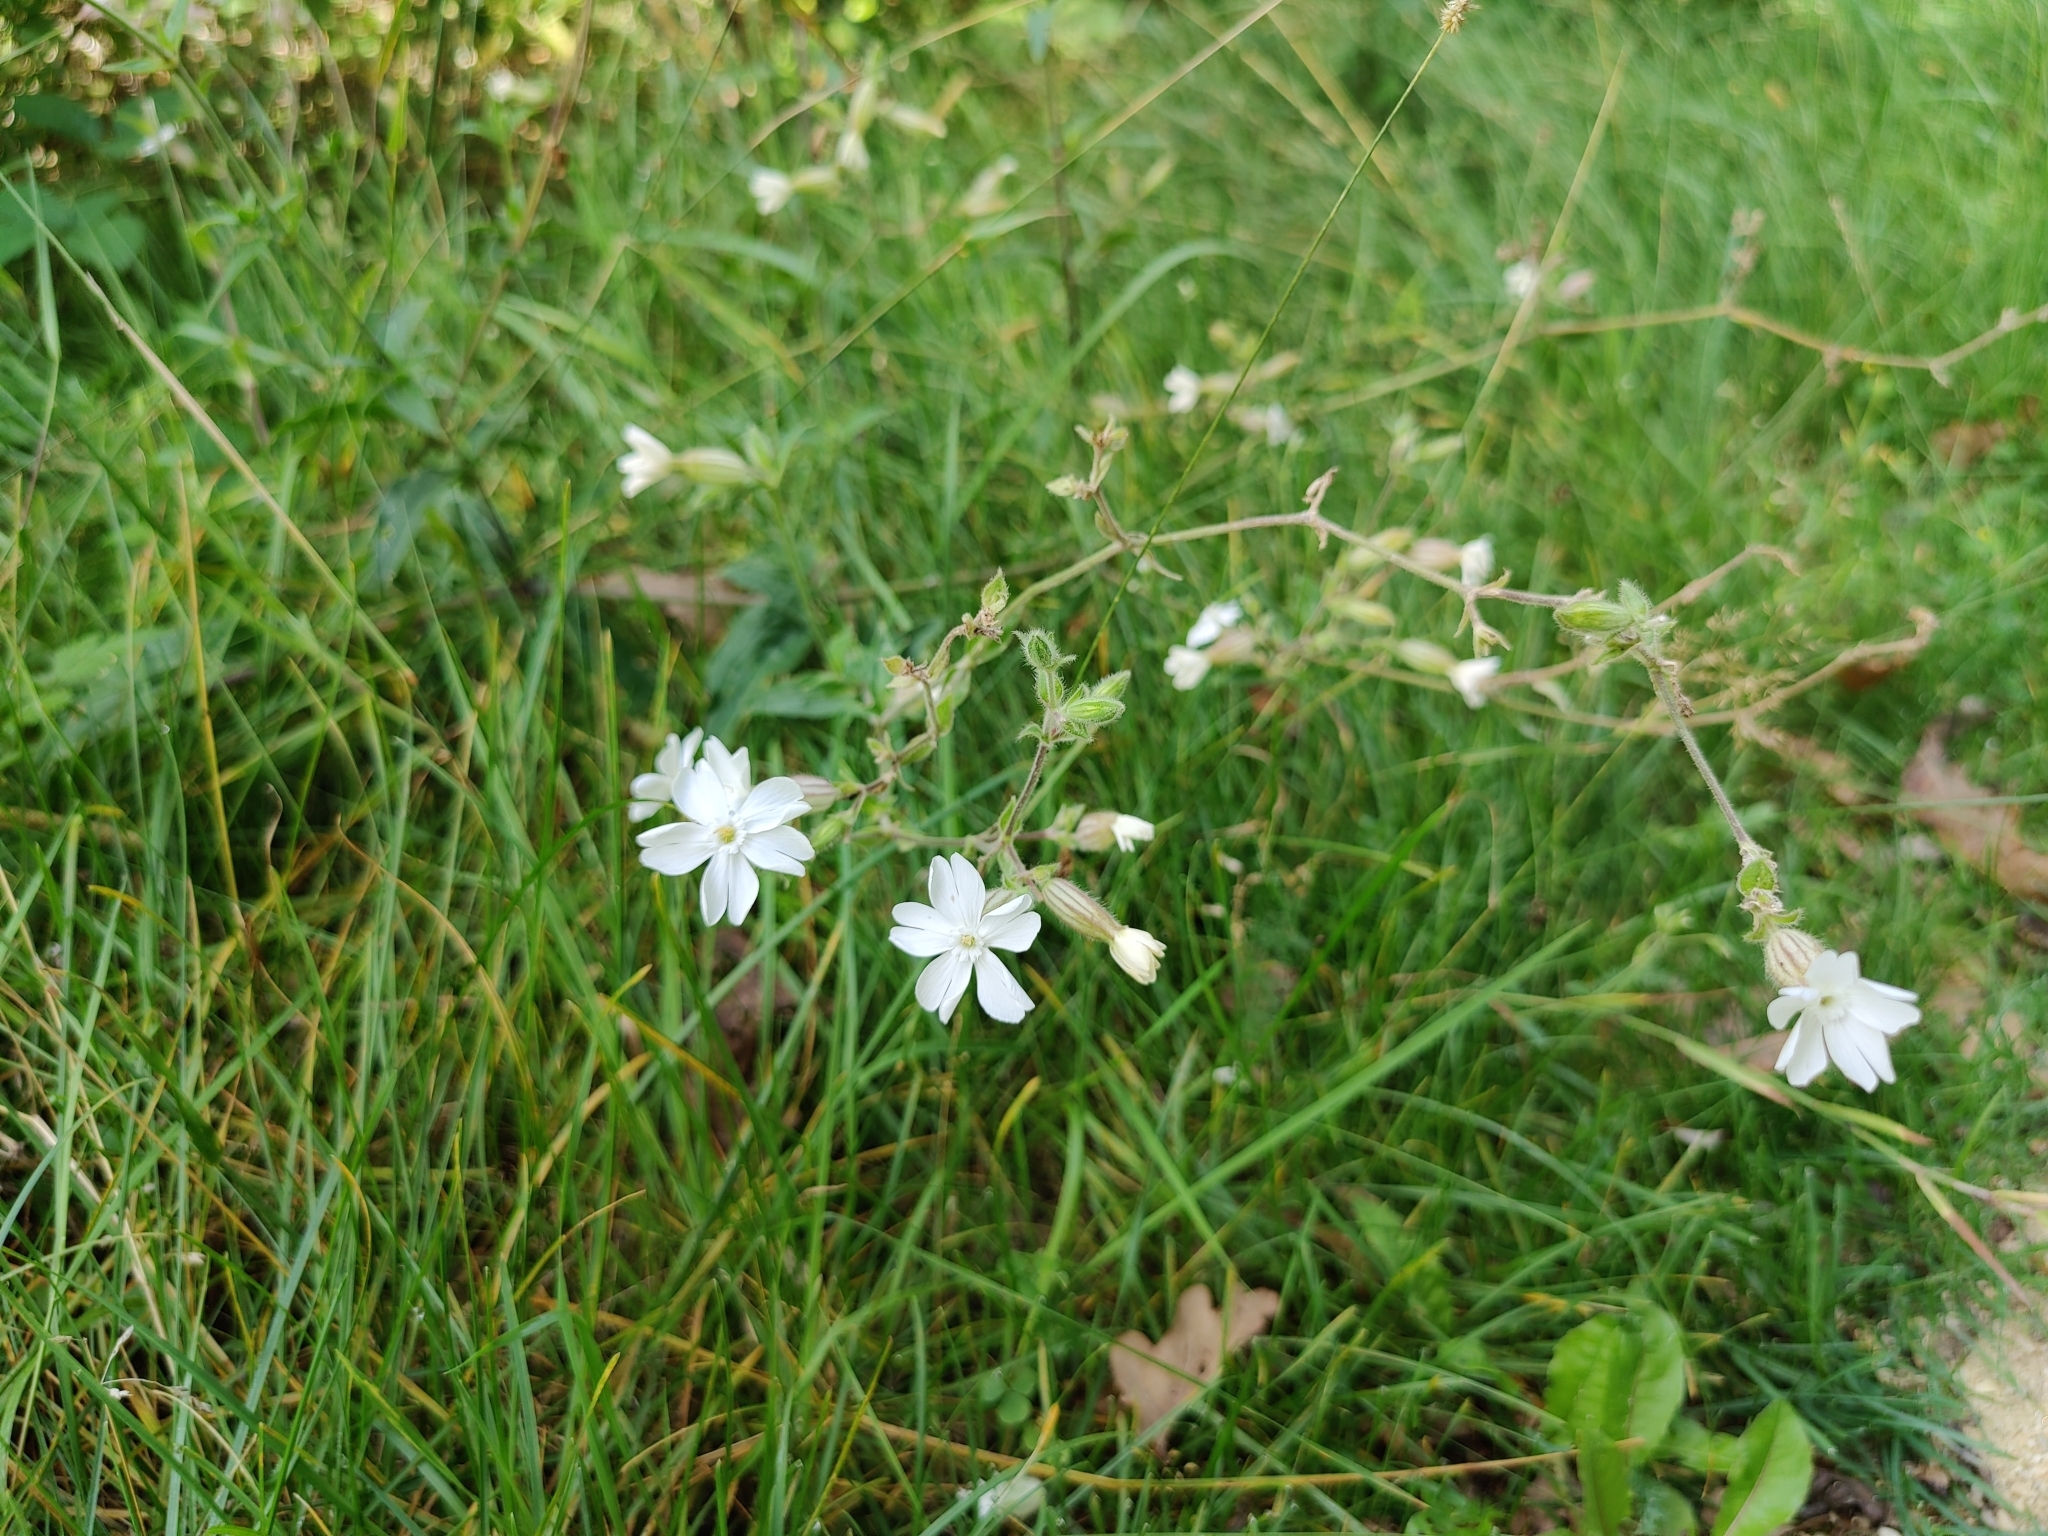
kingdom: Plantae
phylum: Tracheophyta
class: Magnoliopsida
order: Caryophyllales
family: Caryophyllaceae
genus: Silene
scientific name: Silene latifolia
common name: White campion
